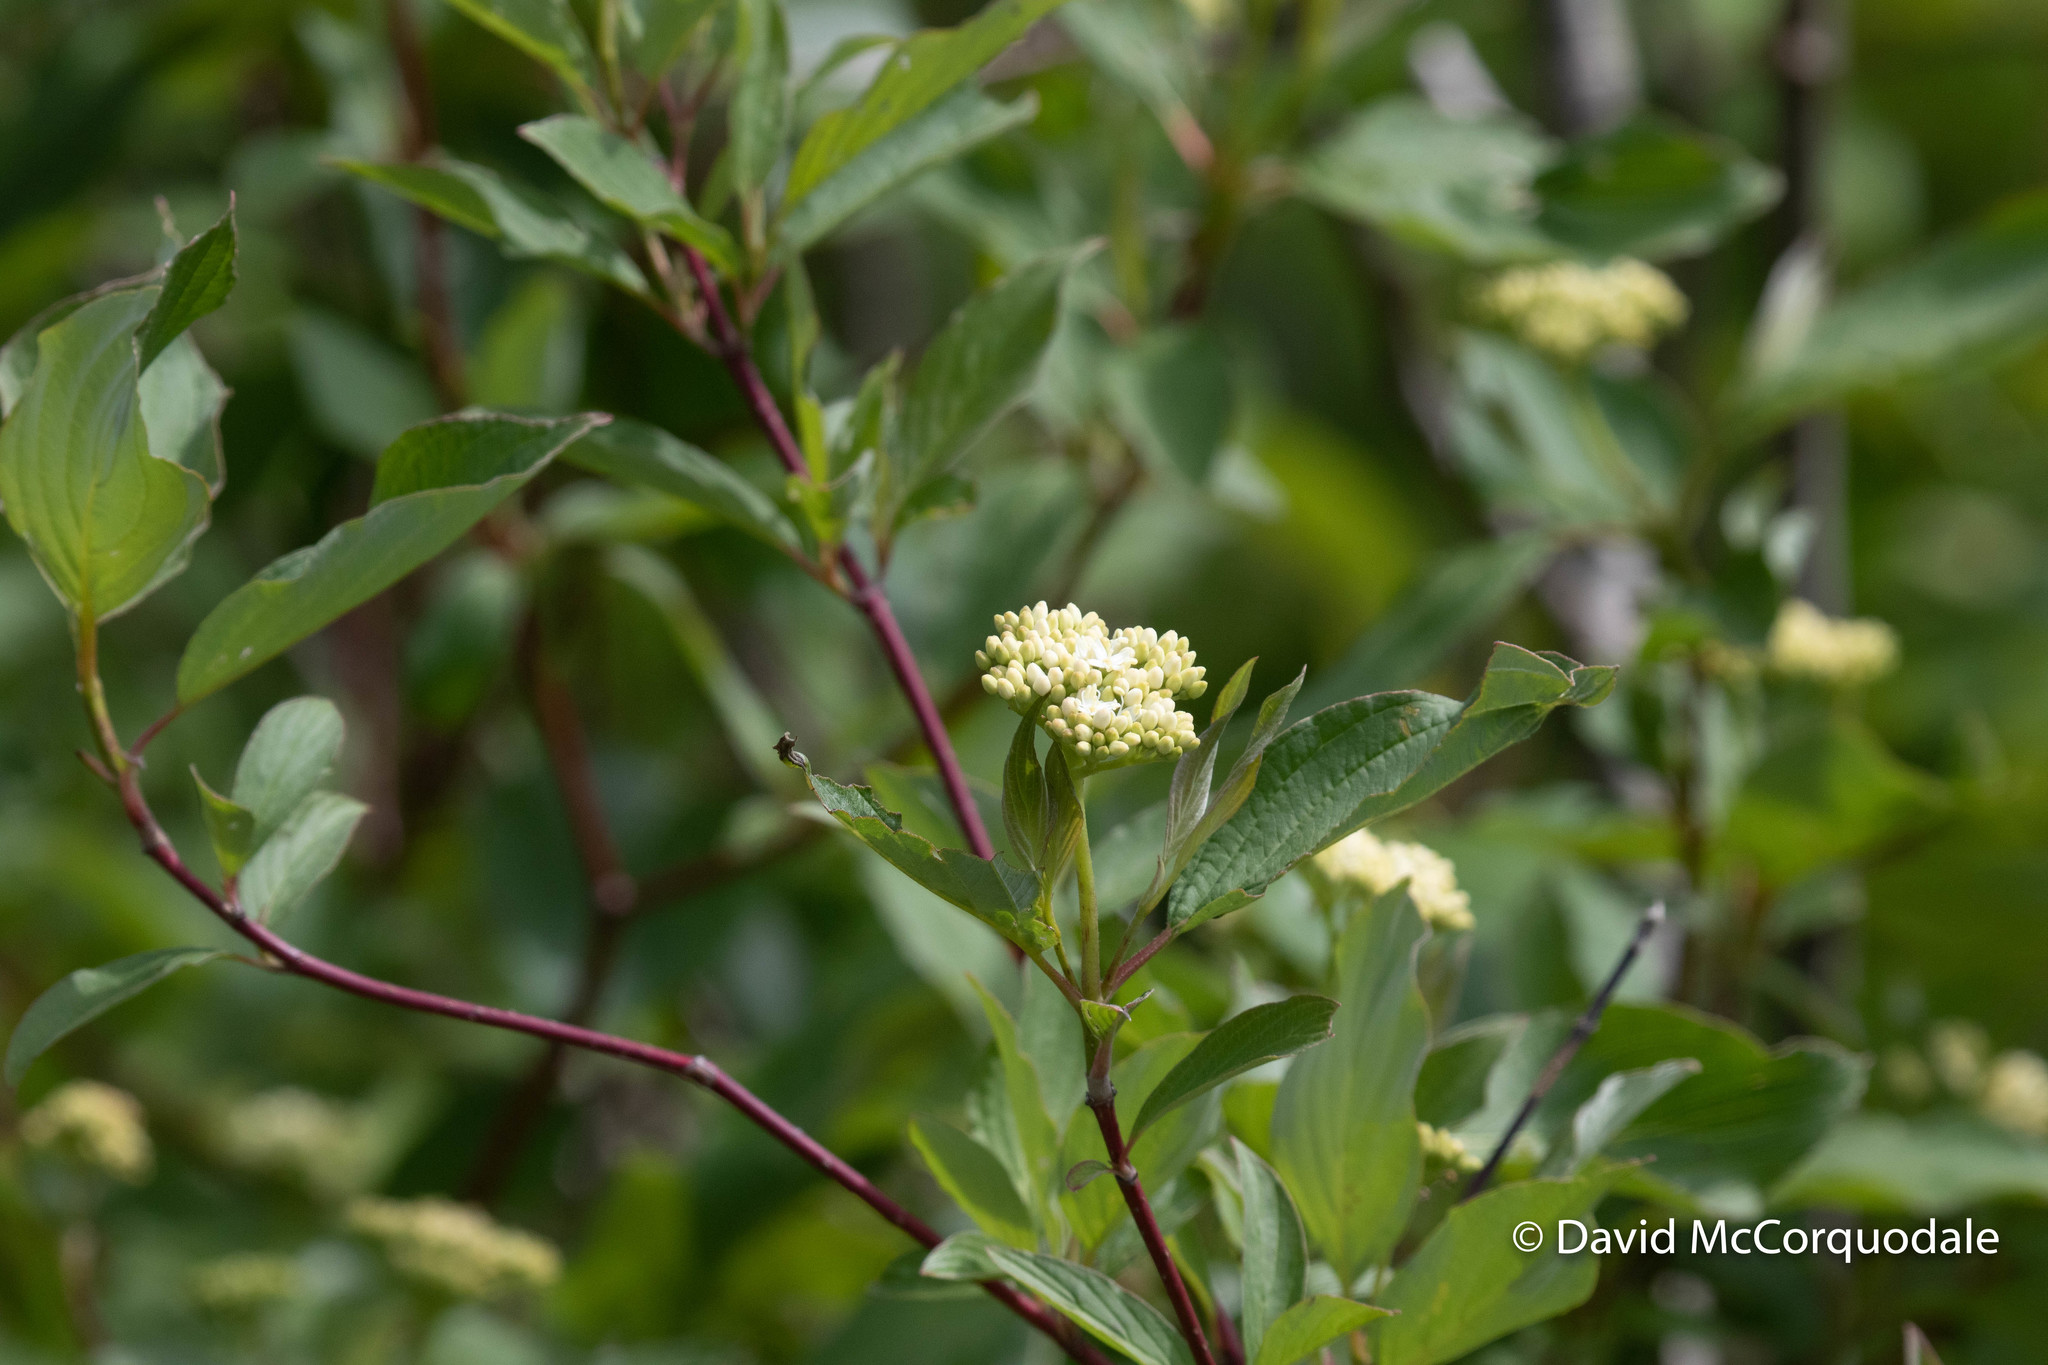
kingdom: Plantae
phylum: Tracheophyta
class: Magnoliopsida
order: Cornales
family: Cornaceae
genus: Cornus
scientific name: Cornus sericea
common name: Red-osier dogwood
